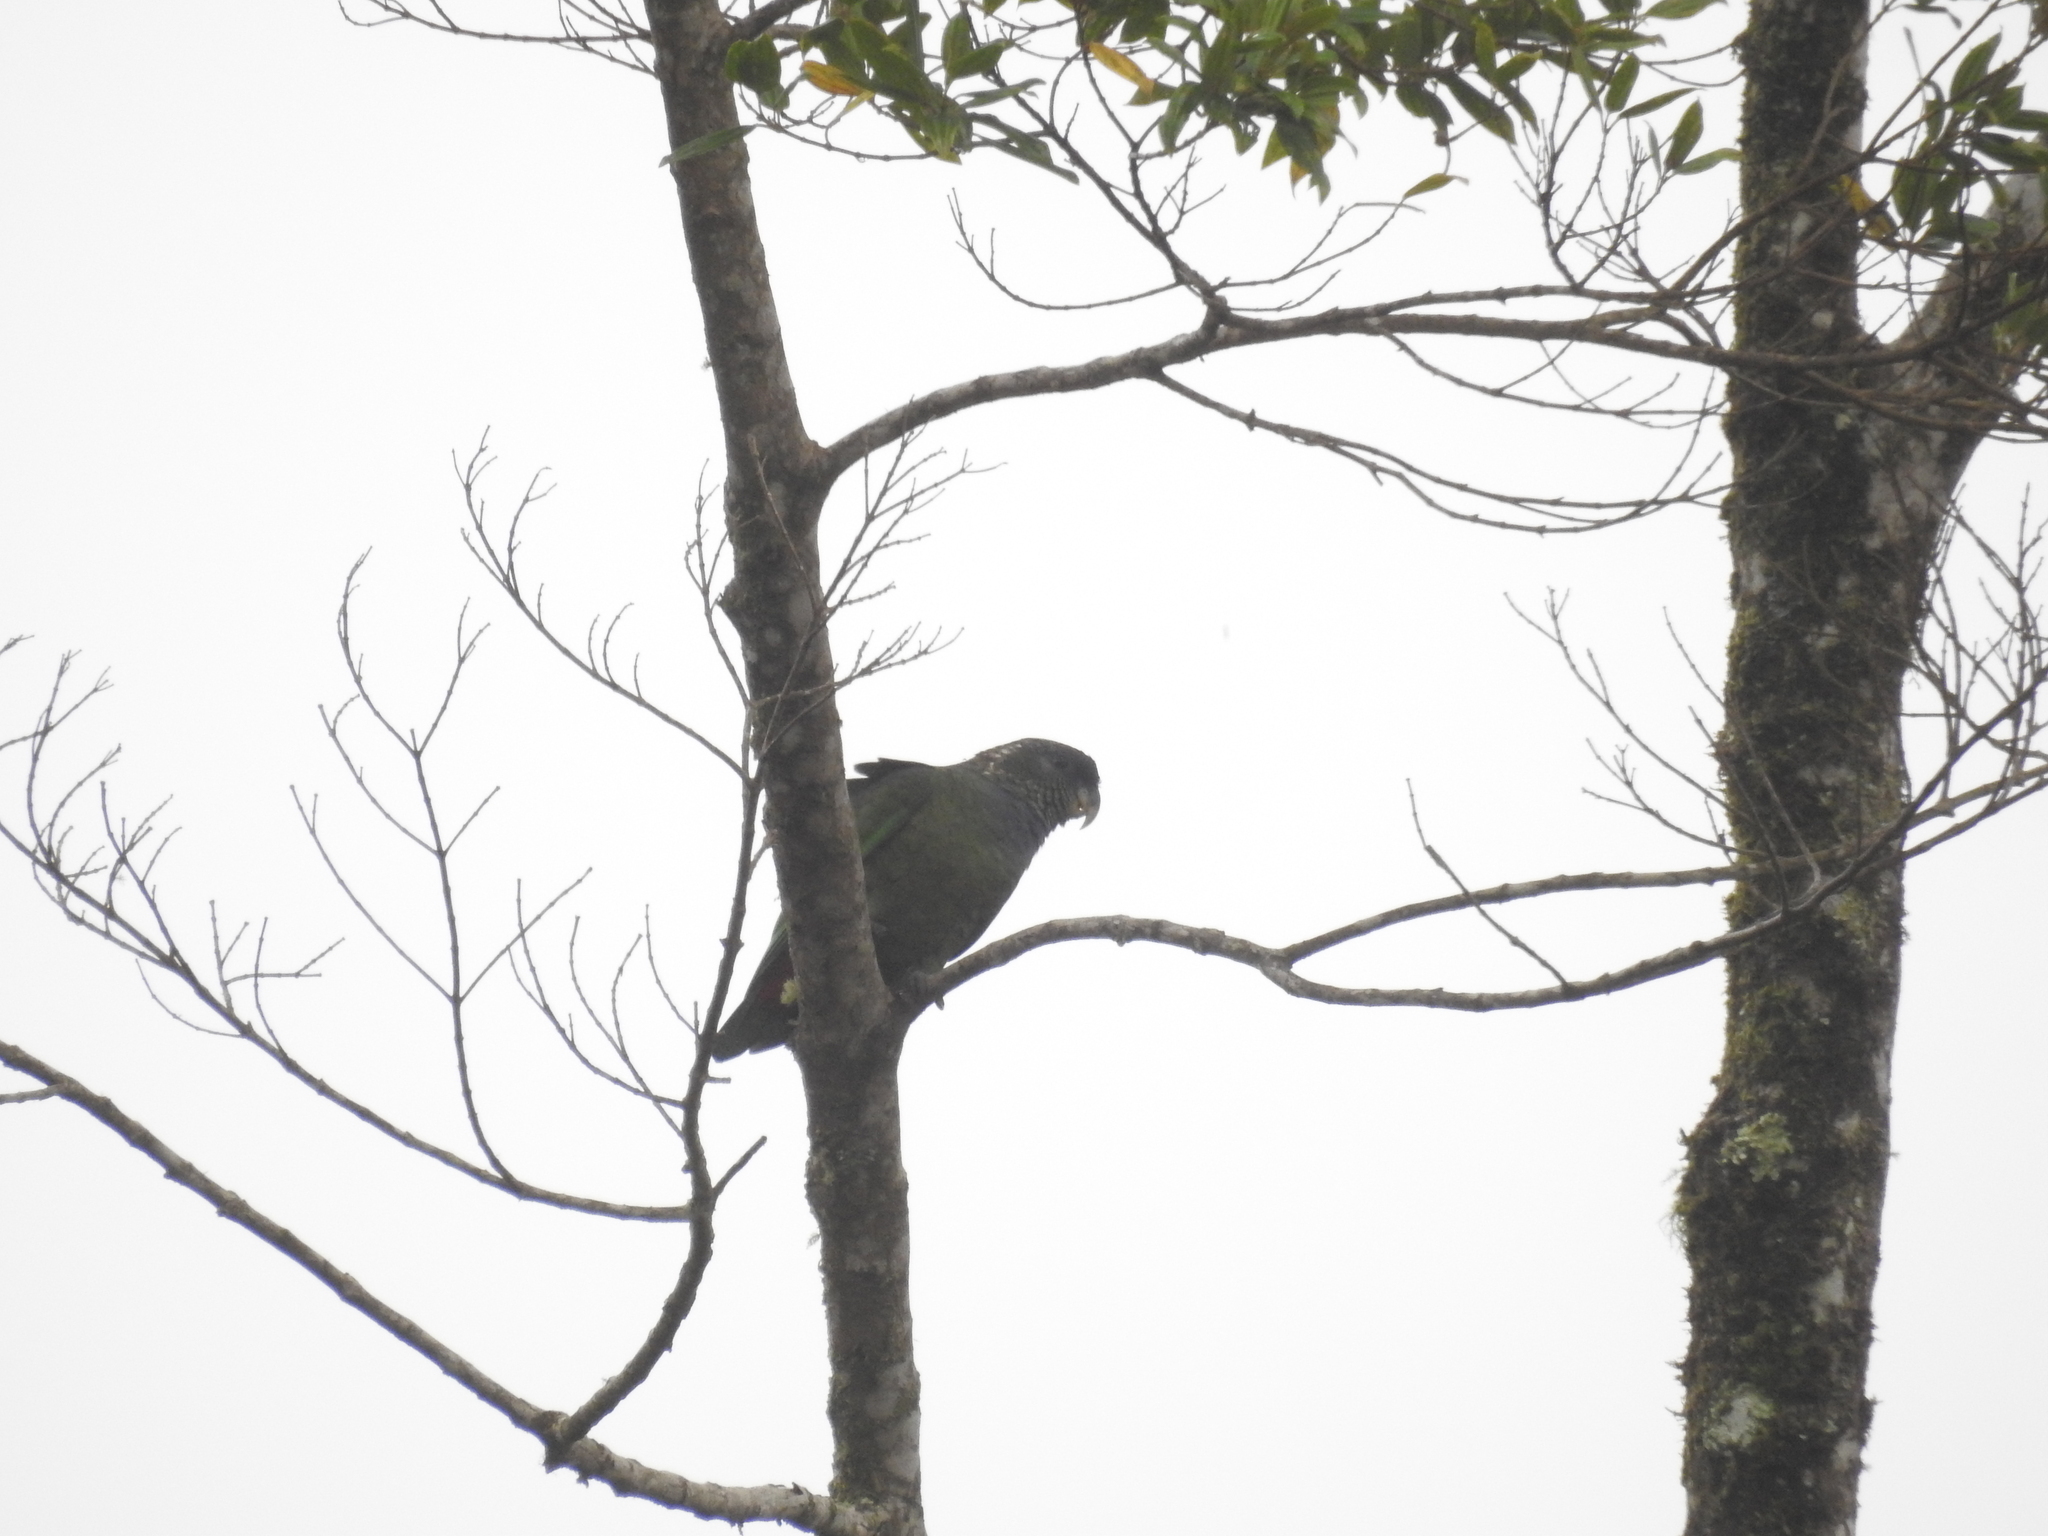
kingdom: Animalia
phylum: Chordata
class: Aves
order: Psittaciformes
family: Psittacidae
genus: Pionus
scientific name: Pionus maximiliani
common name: Scaly-headed parrot
